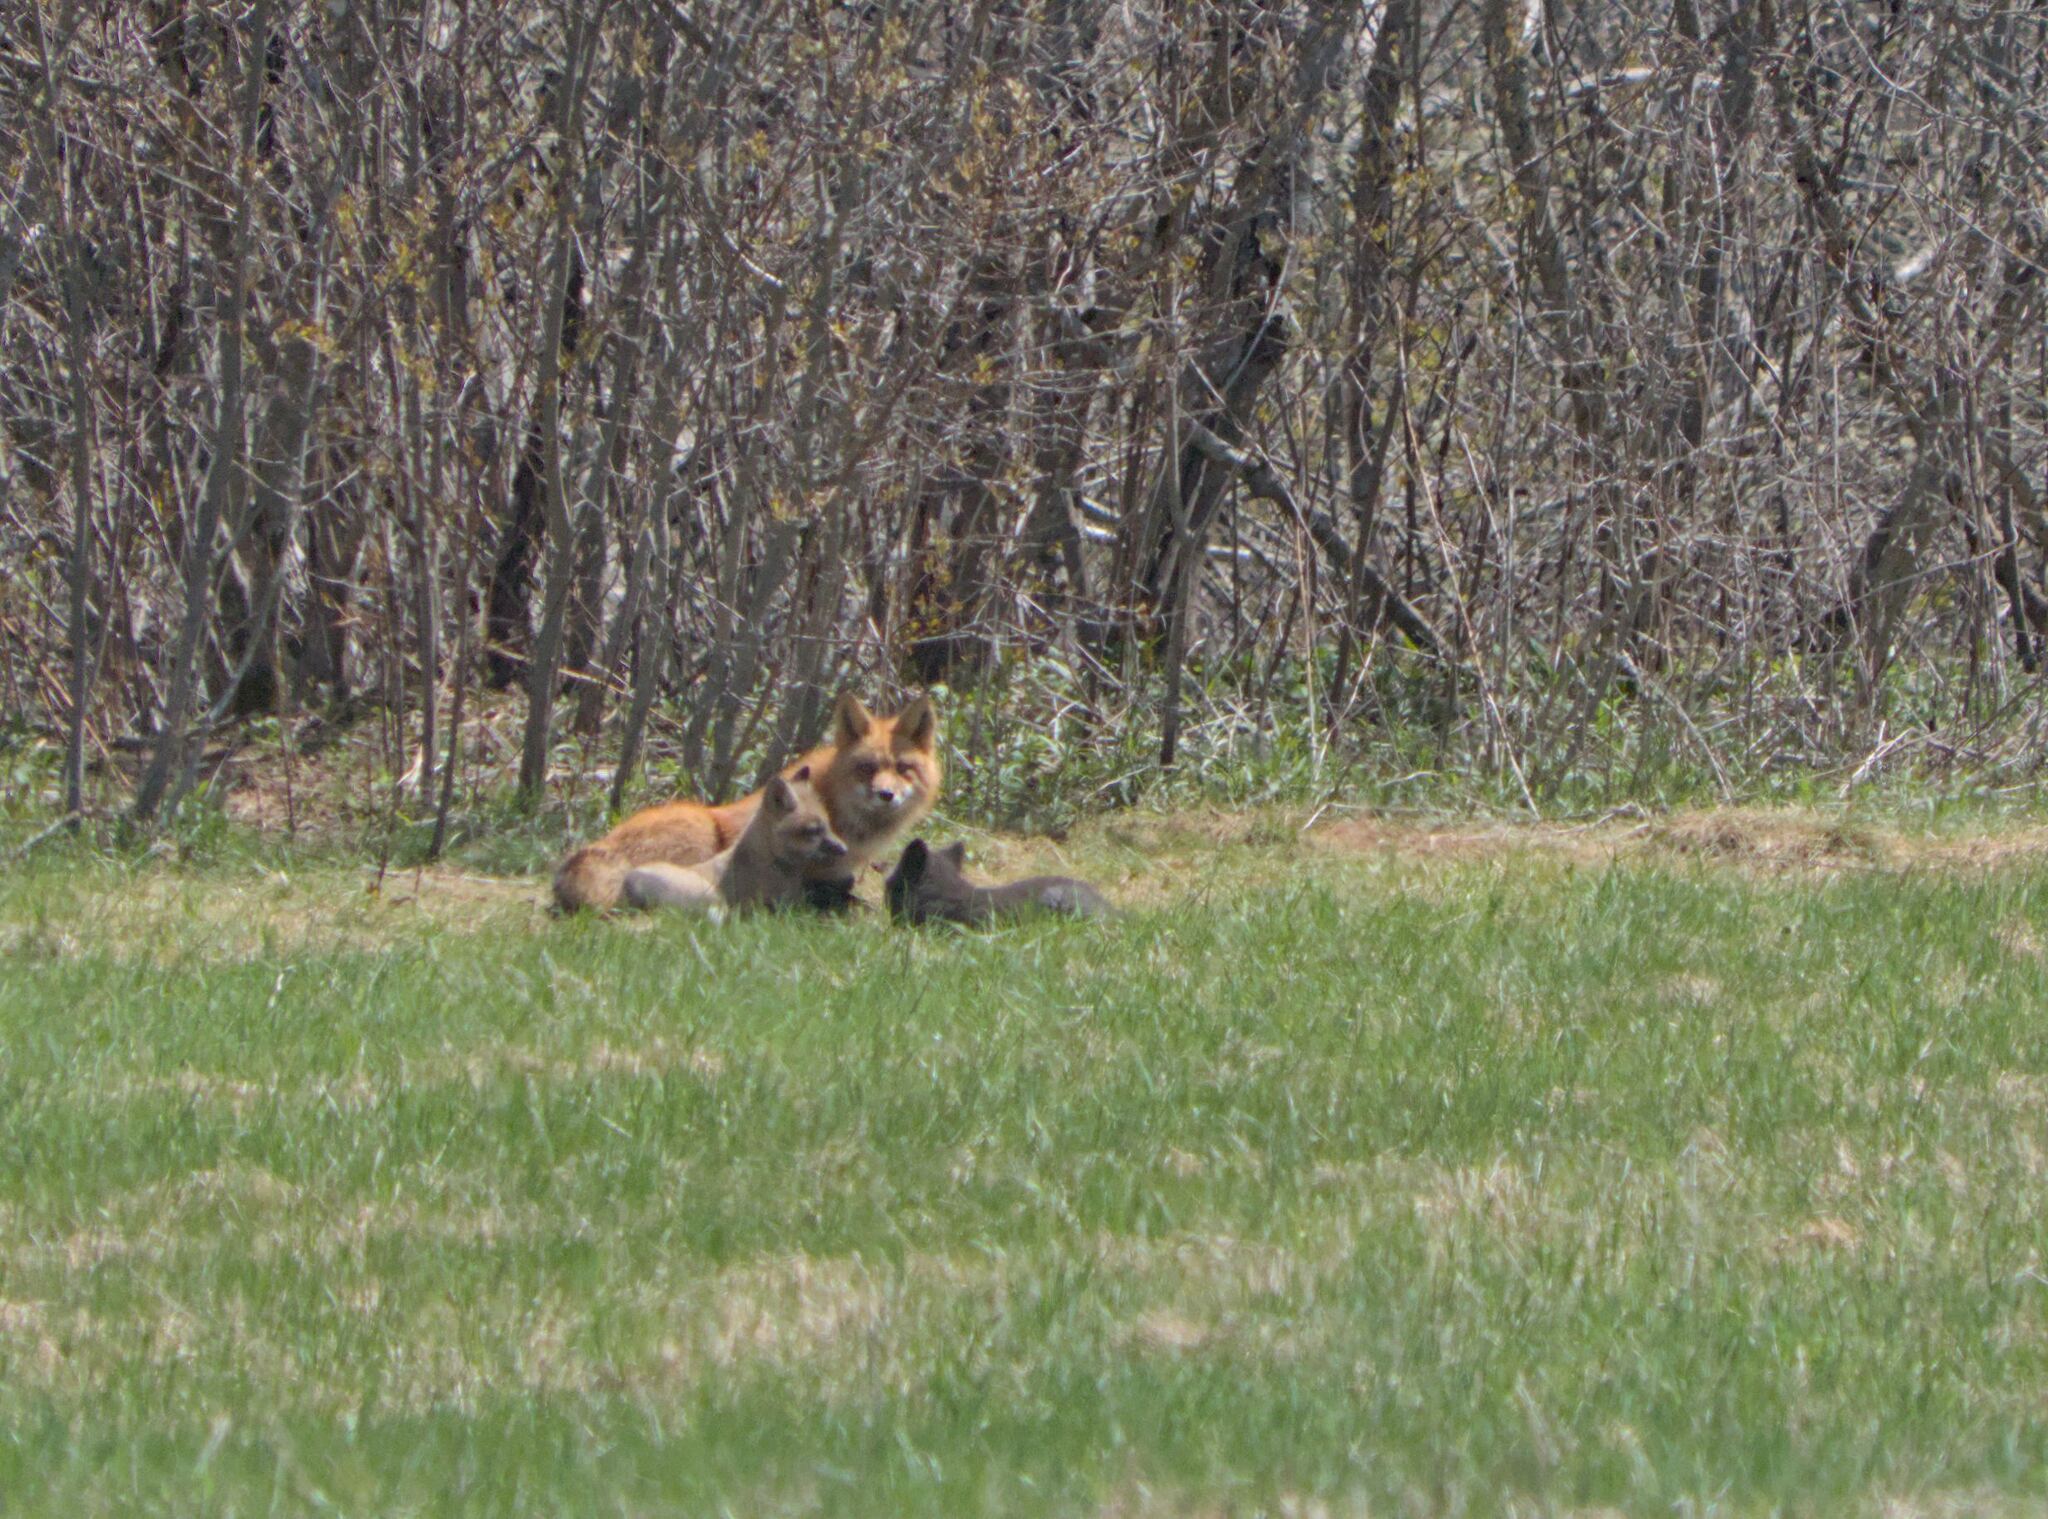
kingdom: Animalia
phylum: Chordata
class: Mammalia
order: Carnivora
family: Canidae
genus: Vulpes
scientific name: Vulpes vulpes
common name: Red fox
